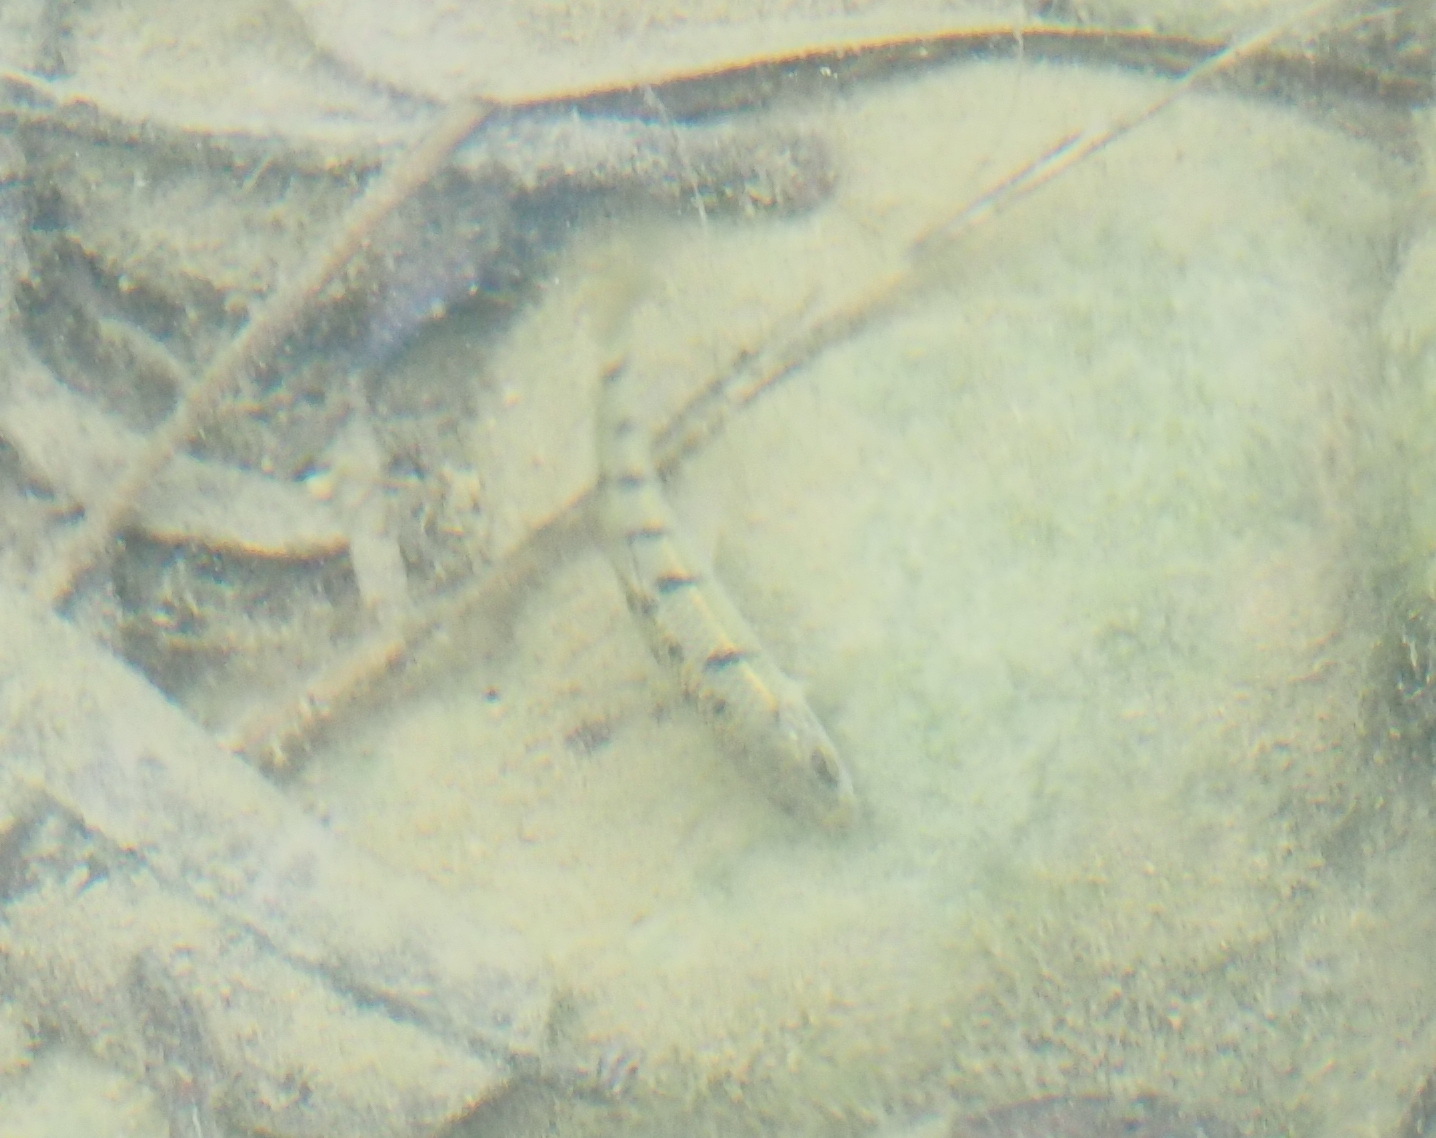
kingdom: Animalia
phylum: Chordata
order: Cypriniformes
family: Cyprinidae
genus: Acrossocheilus
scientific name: Acrossocheilus paradoxus
